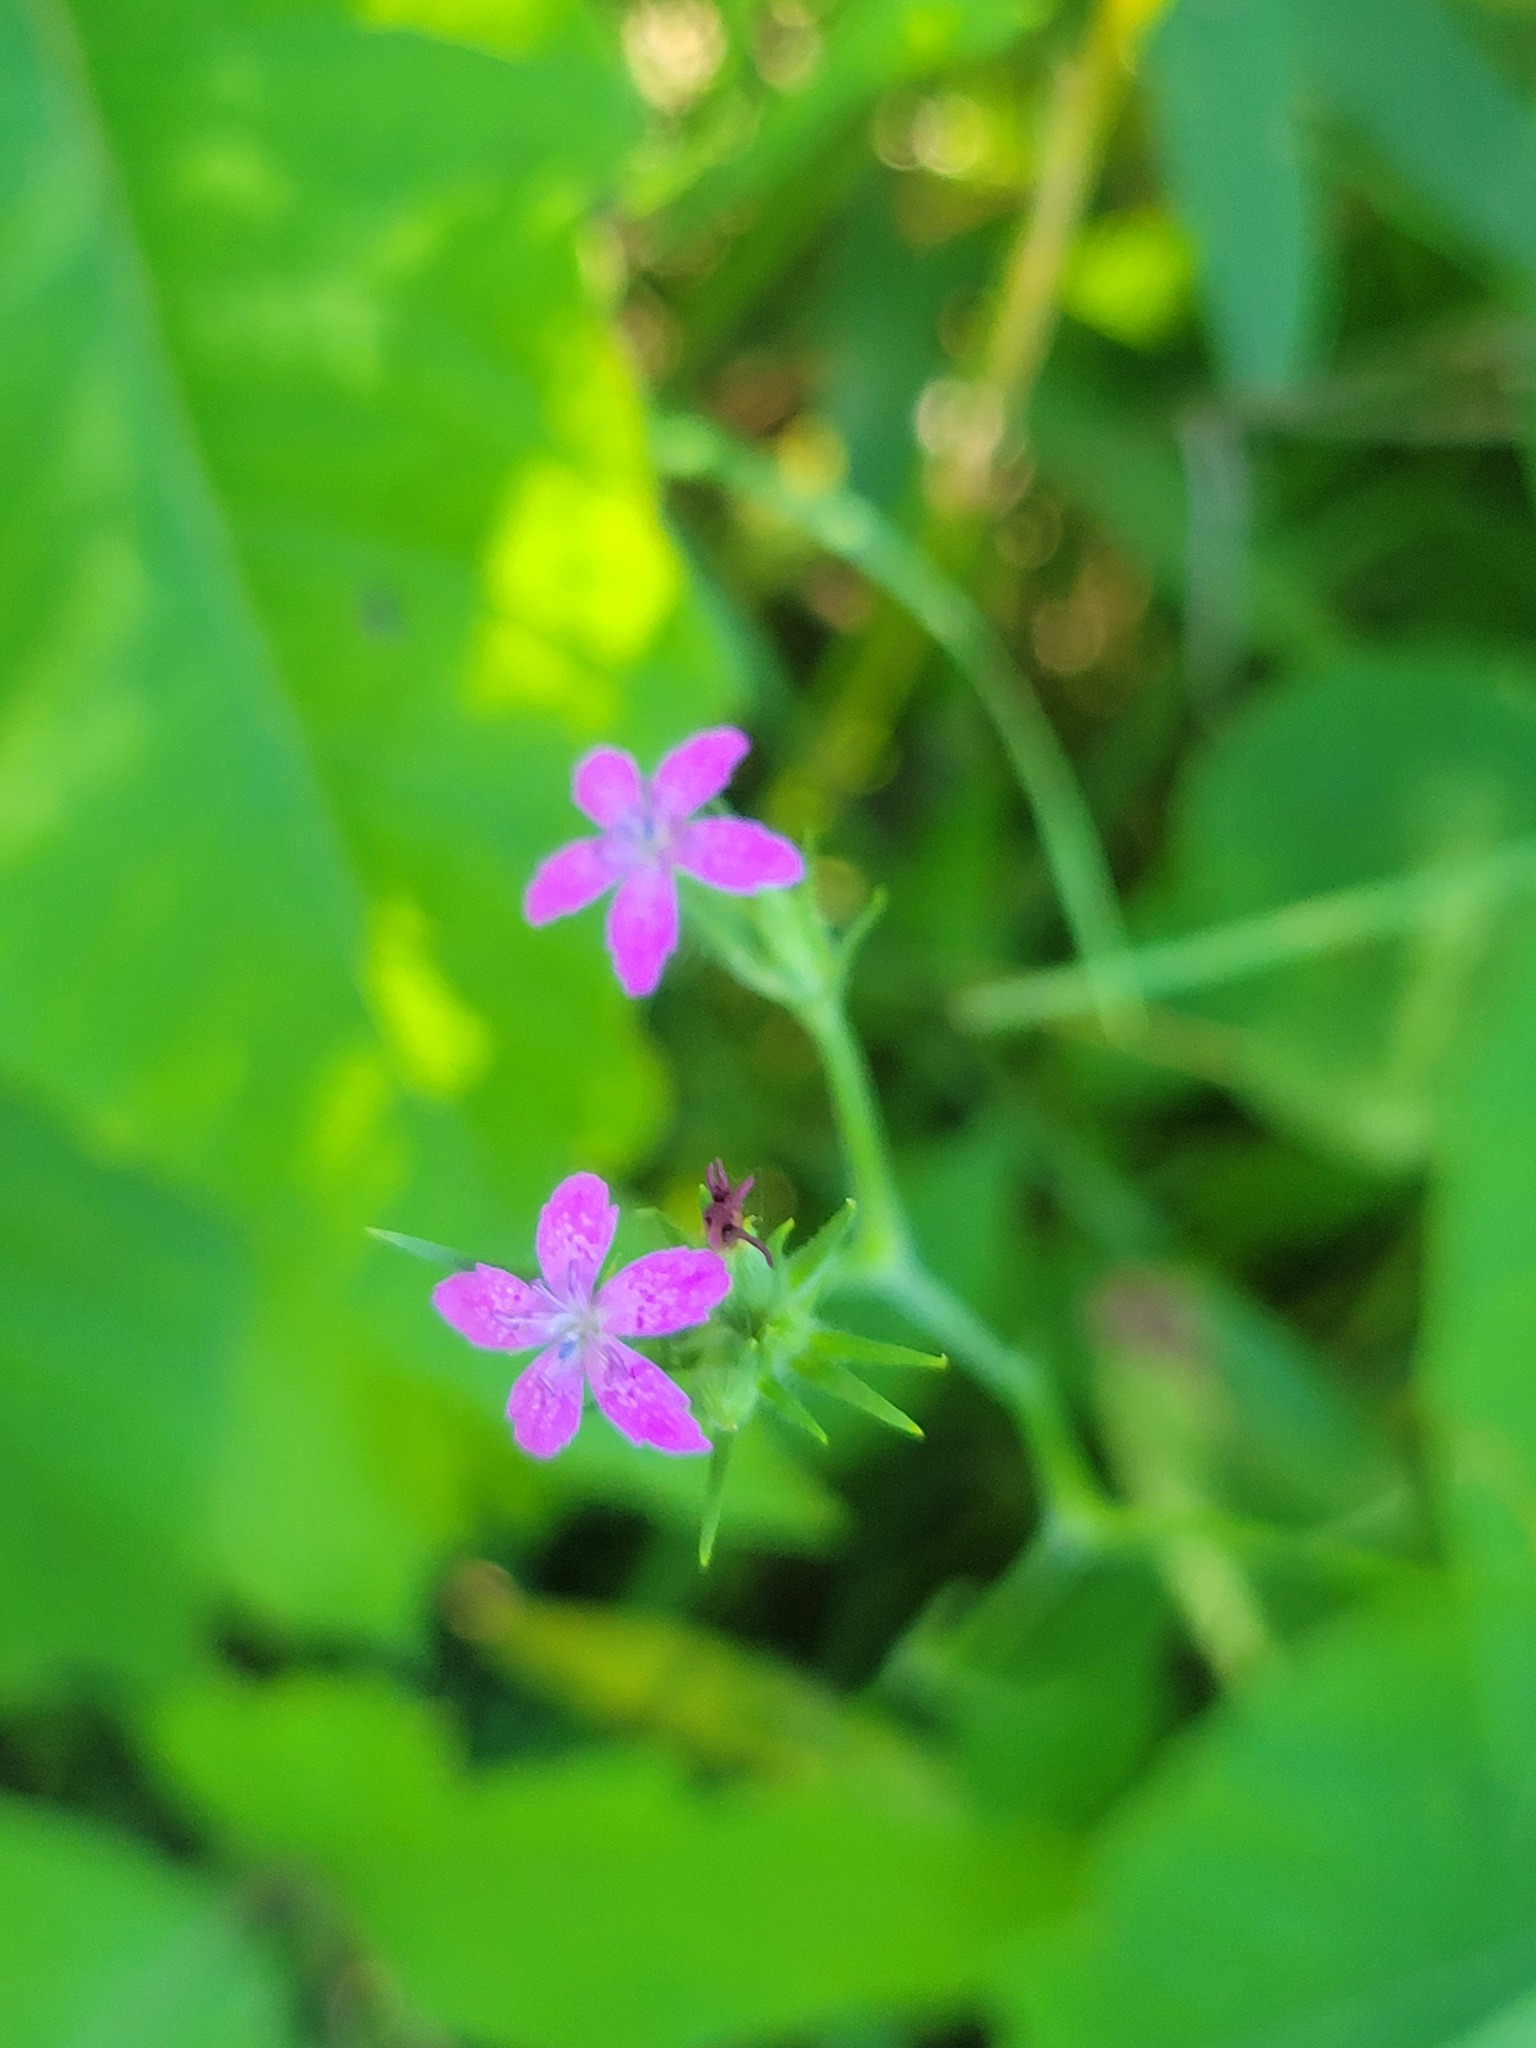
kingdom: Plantae
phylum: Tracheophyta
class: Magnoliopsida
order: Caryophyllales
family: Caryophyllaceae
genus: Dianthus
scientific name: Dianthus armeria
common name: Deptford pink
